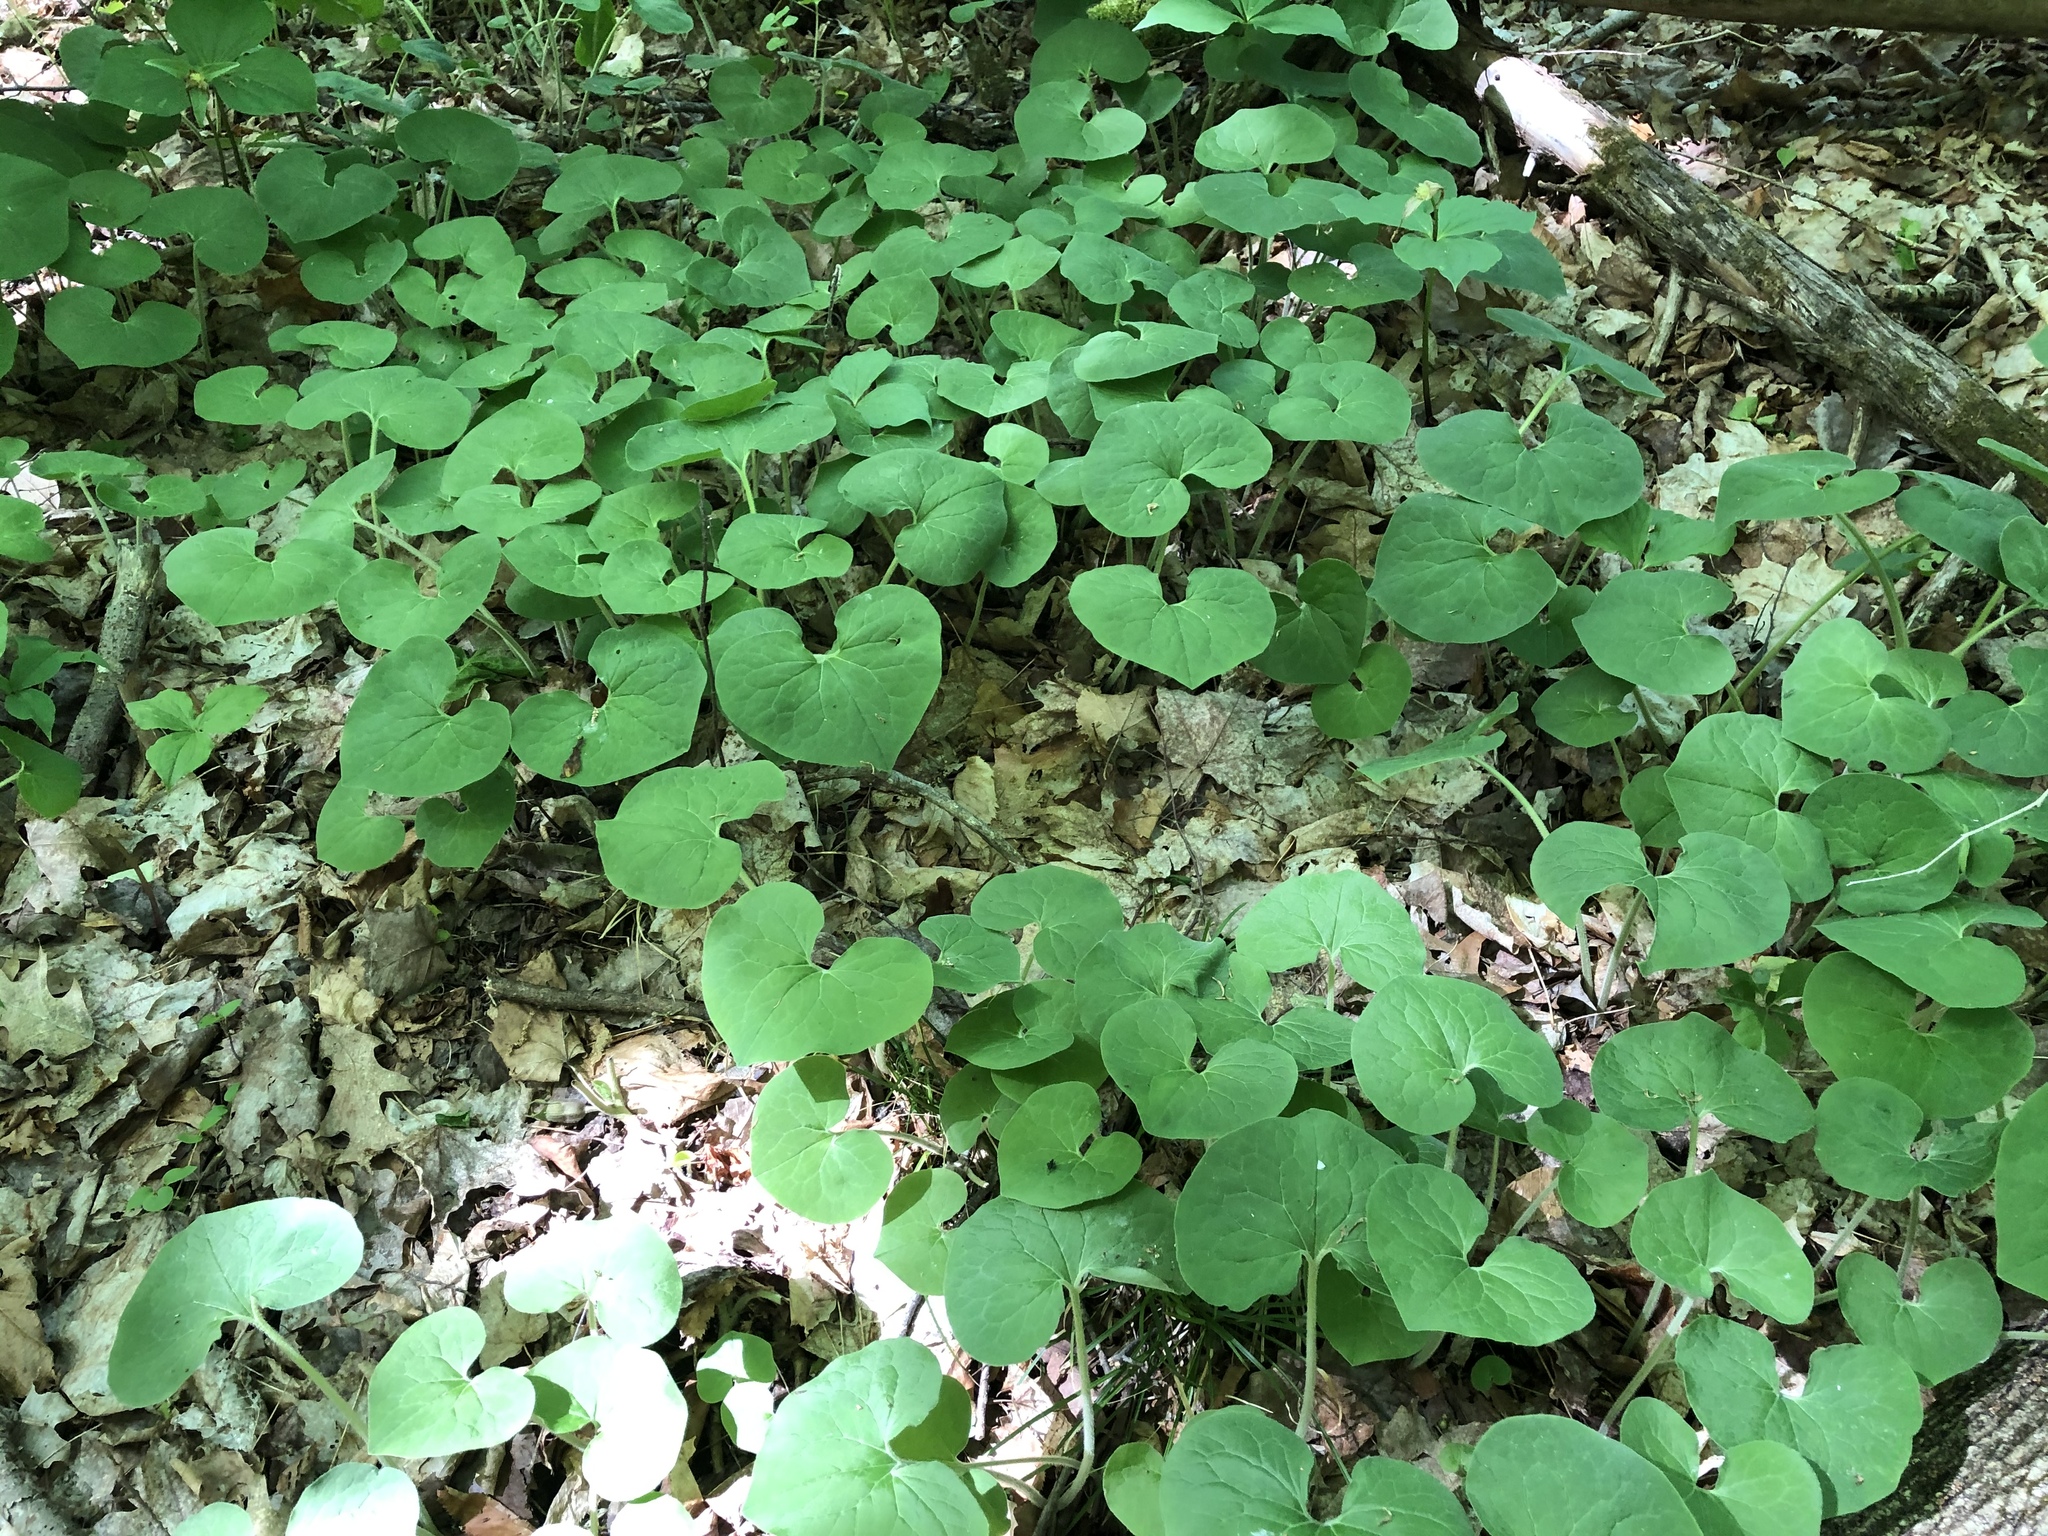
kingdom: Plantae
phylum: Tracheophyta
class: Magnoliopsida
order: Piperales
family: Aristolochiaceae
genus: Asarum
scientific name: Asarum canadense
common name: Wild ginger
